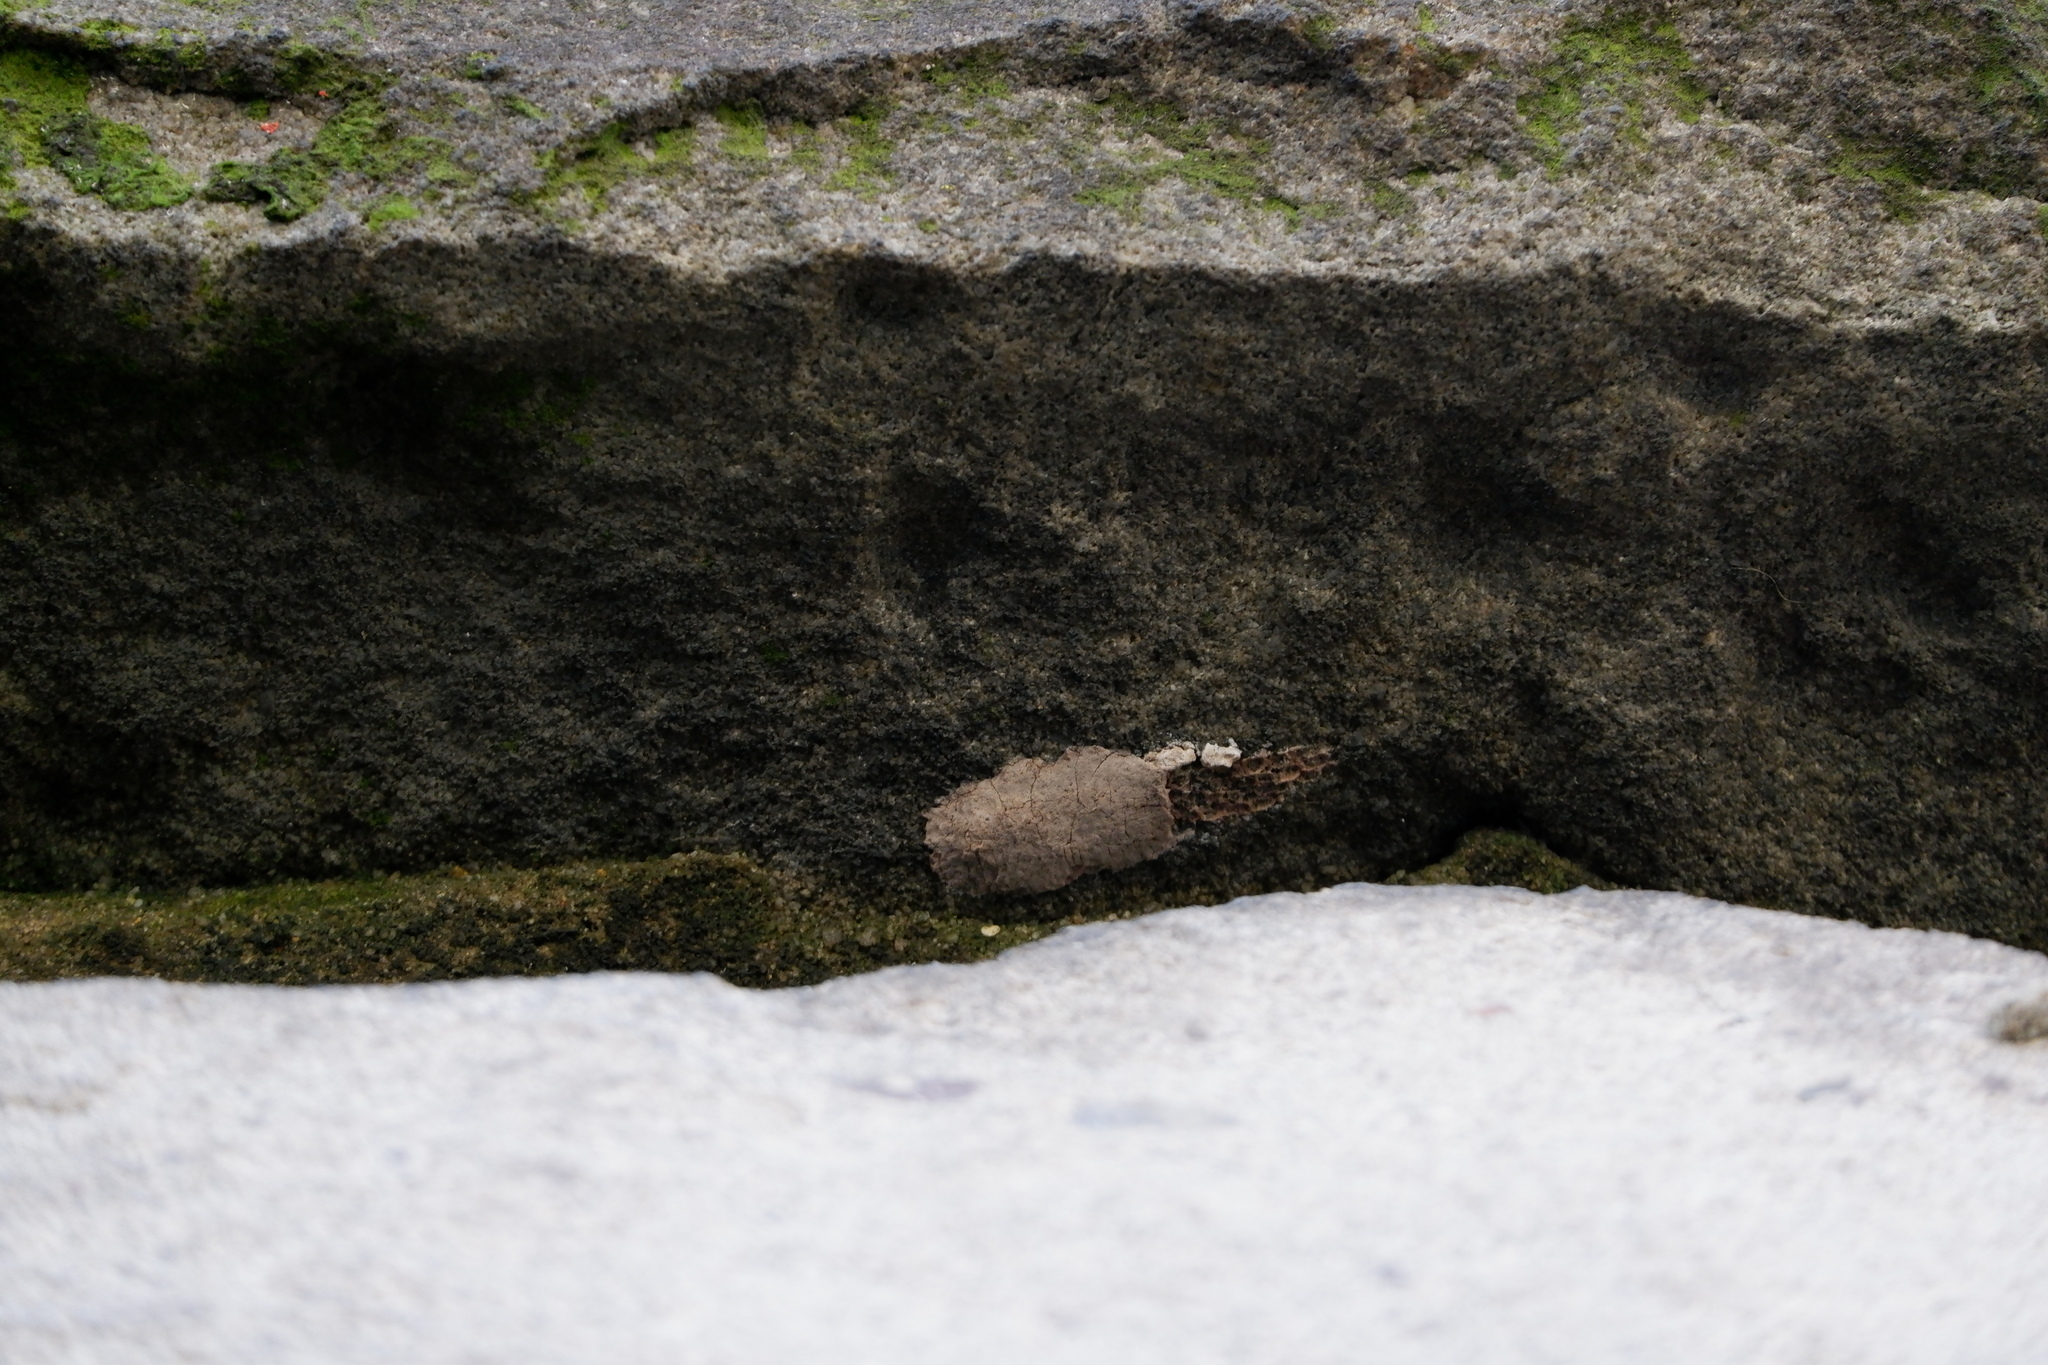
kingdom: Animalia
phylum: Arthropoda
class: Insecta
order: Hemiptera
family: Fulgoridae
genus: Lycorma
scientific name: Lycorma delicatula
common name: Spotted lanternfly
